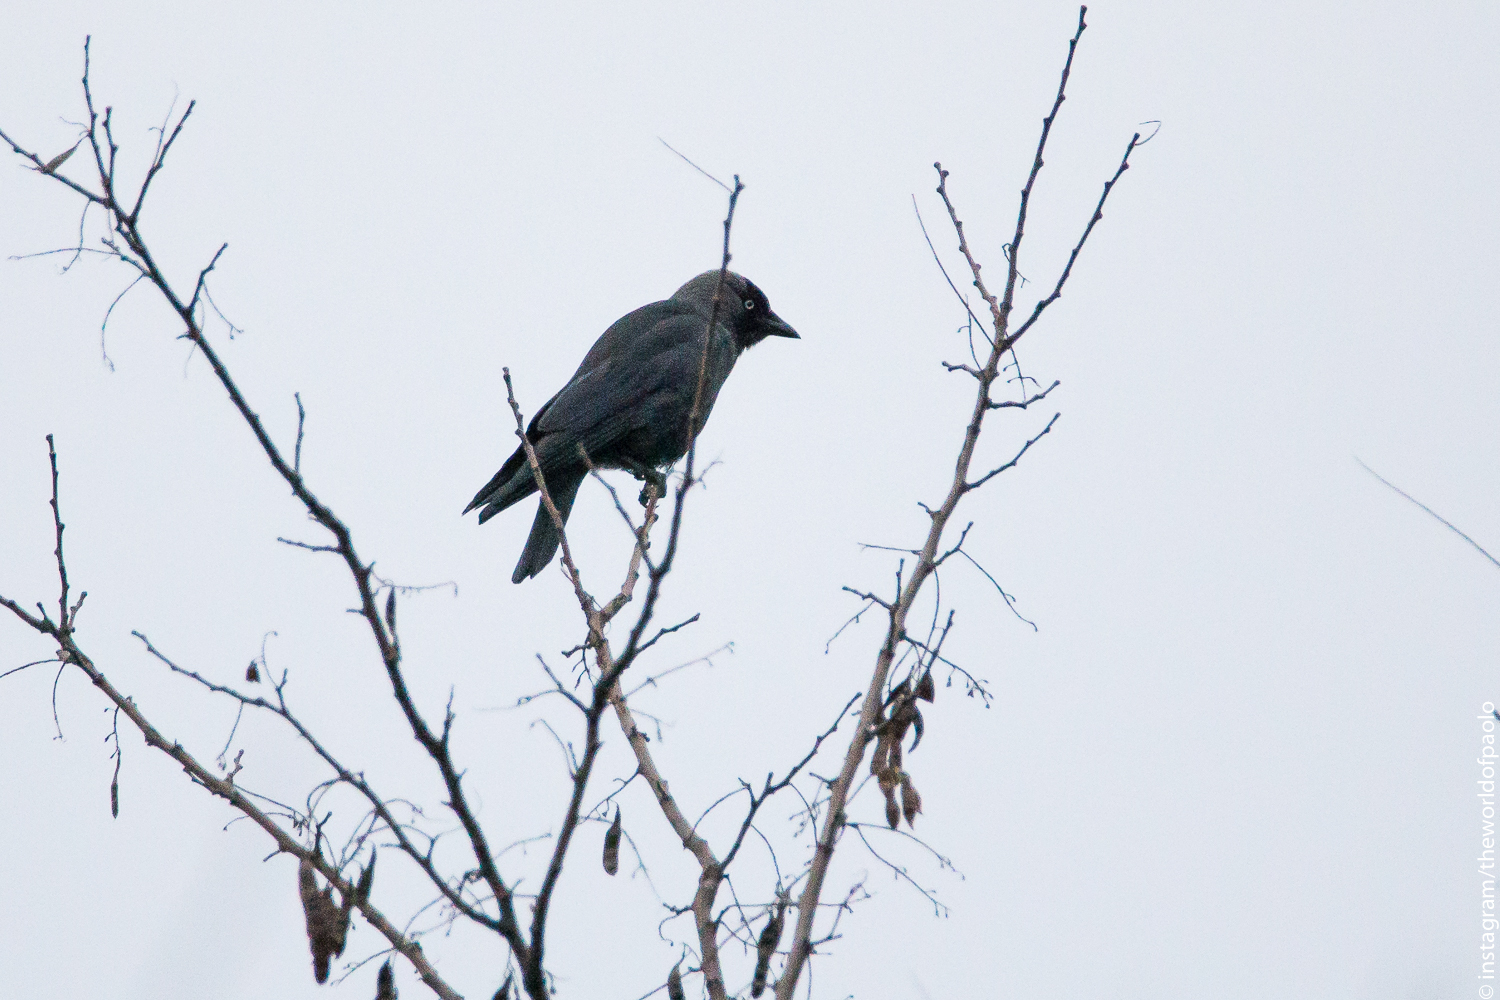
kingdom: Animalia
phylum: Chordata
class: Aves
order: Passeriformes
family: Corvidae
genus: Coloeus
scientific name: Coloeus monedula
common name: Western jackdaw
